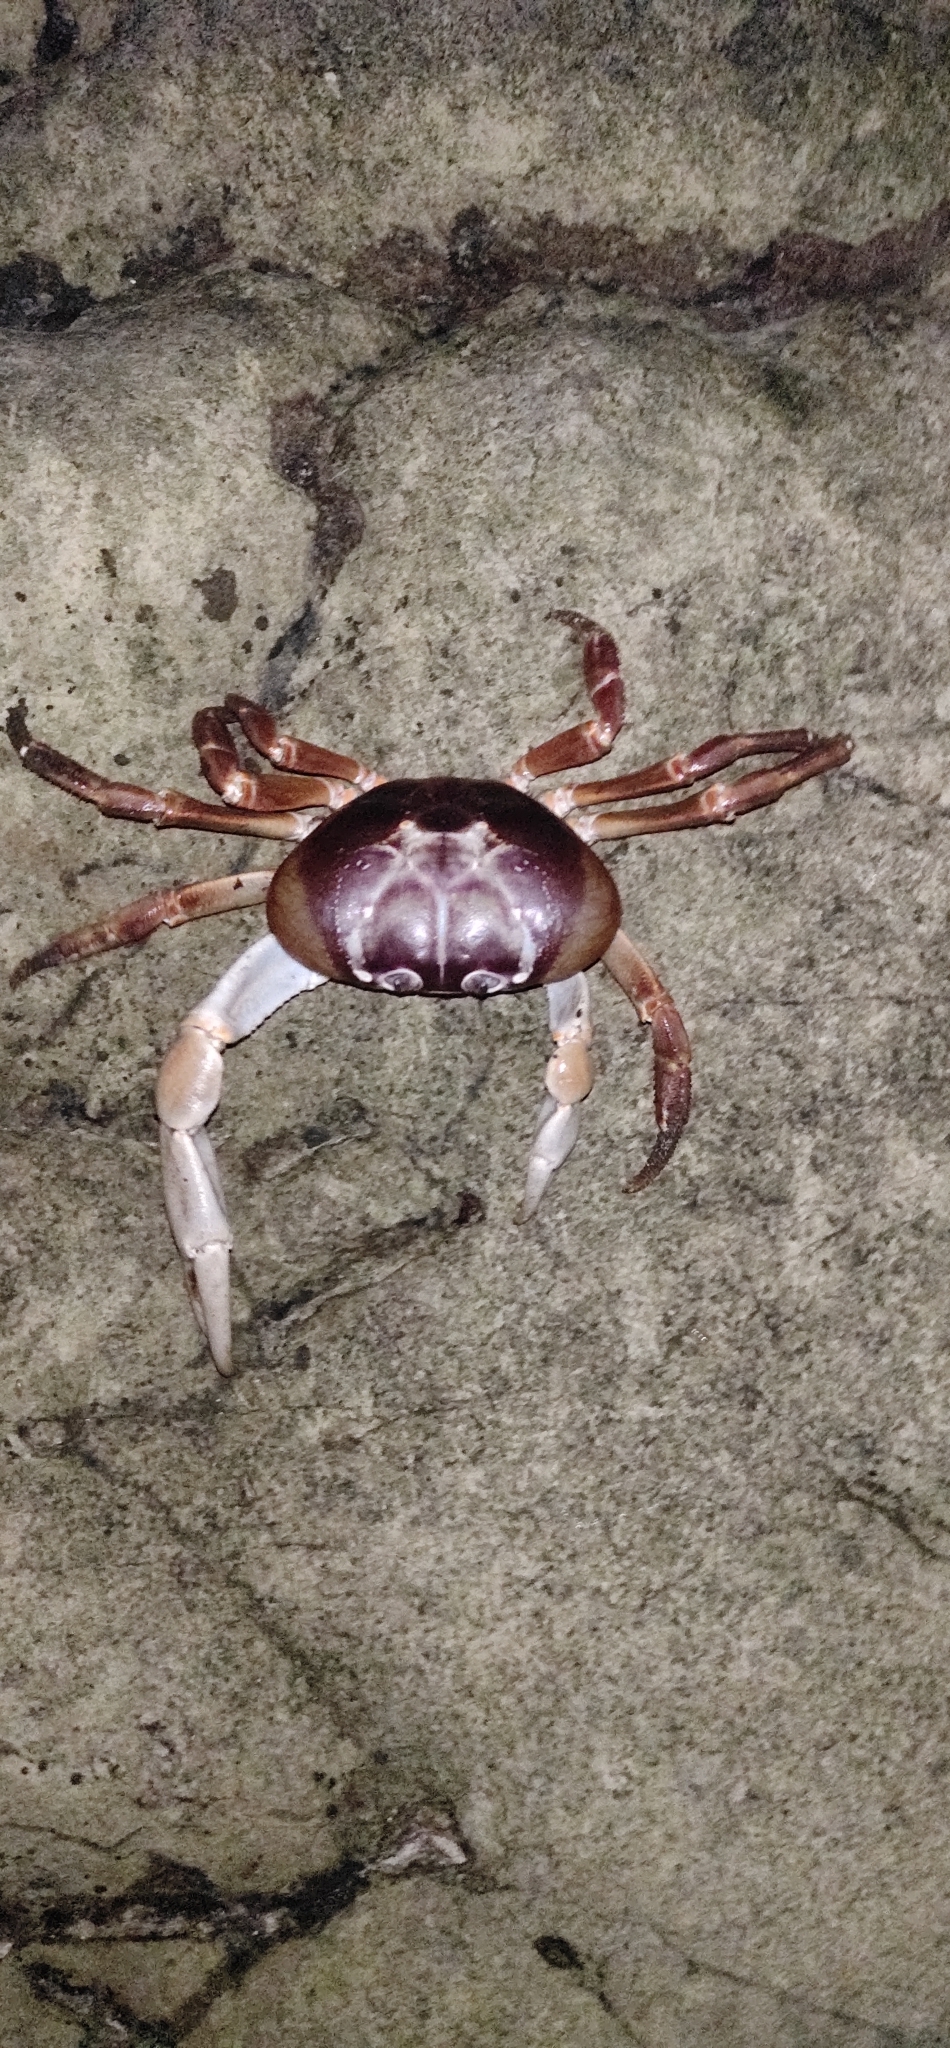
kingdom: Animalia
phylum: Arthropoda
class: Malacostraca
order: Decapoda
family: Gecarcinidae
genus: Gecarcoidea
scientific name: Gecarcoidea humei
